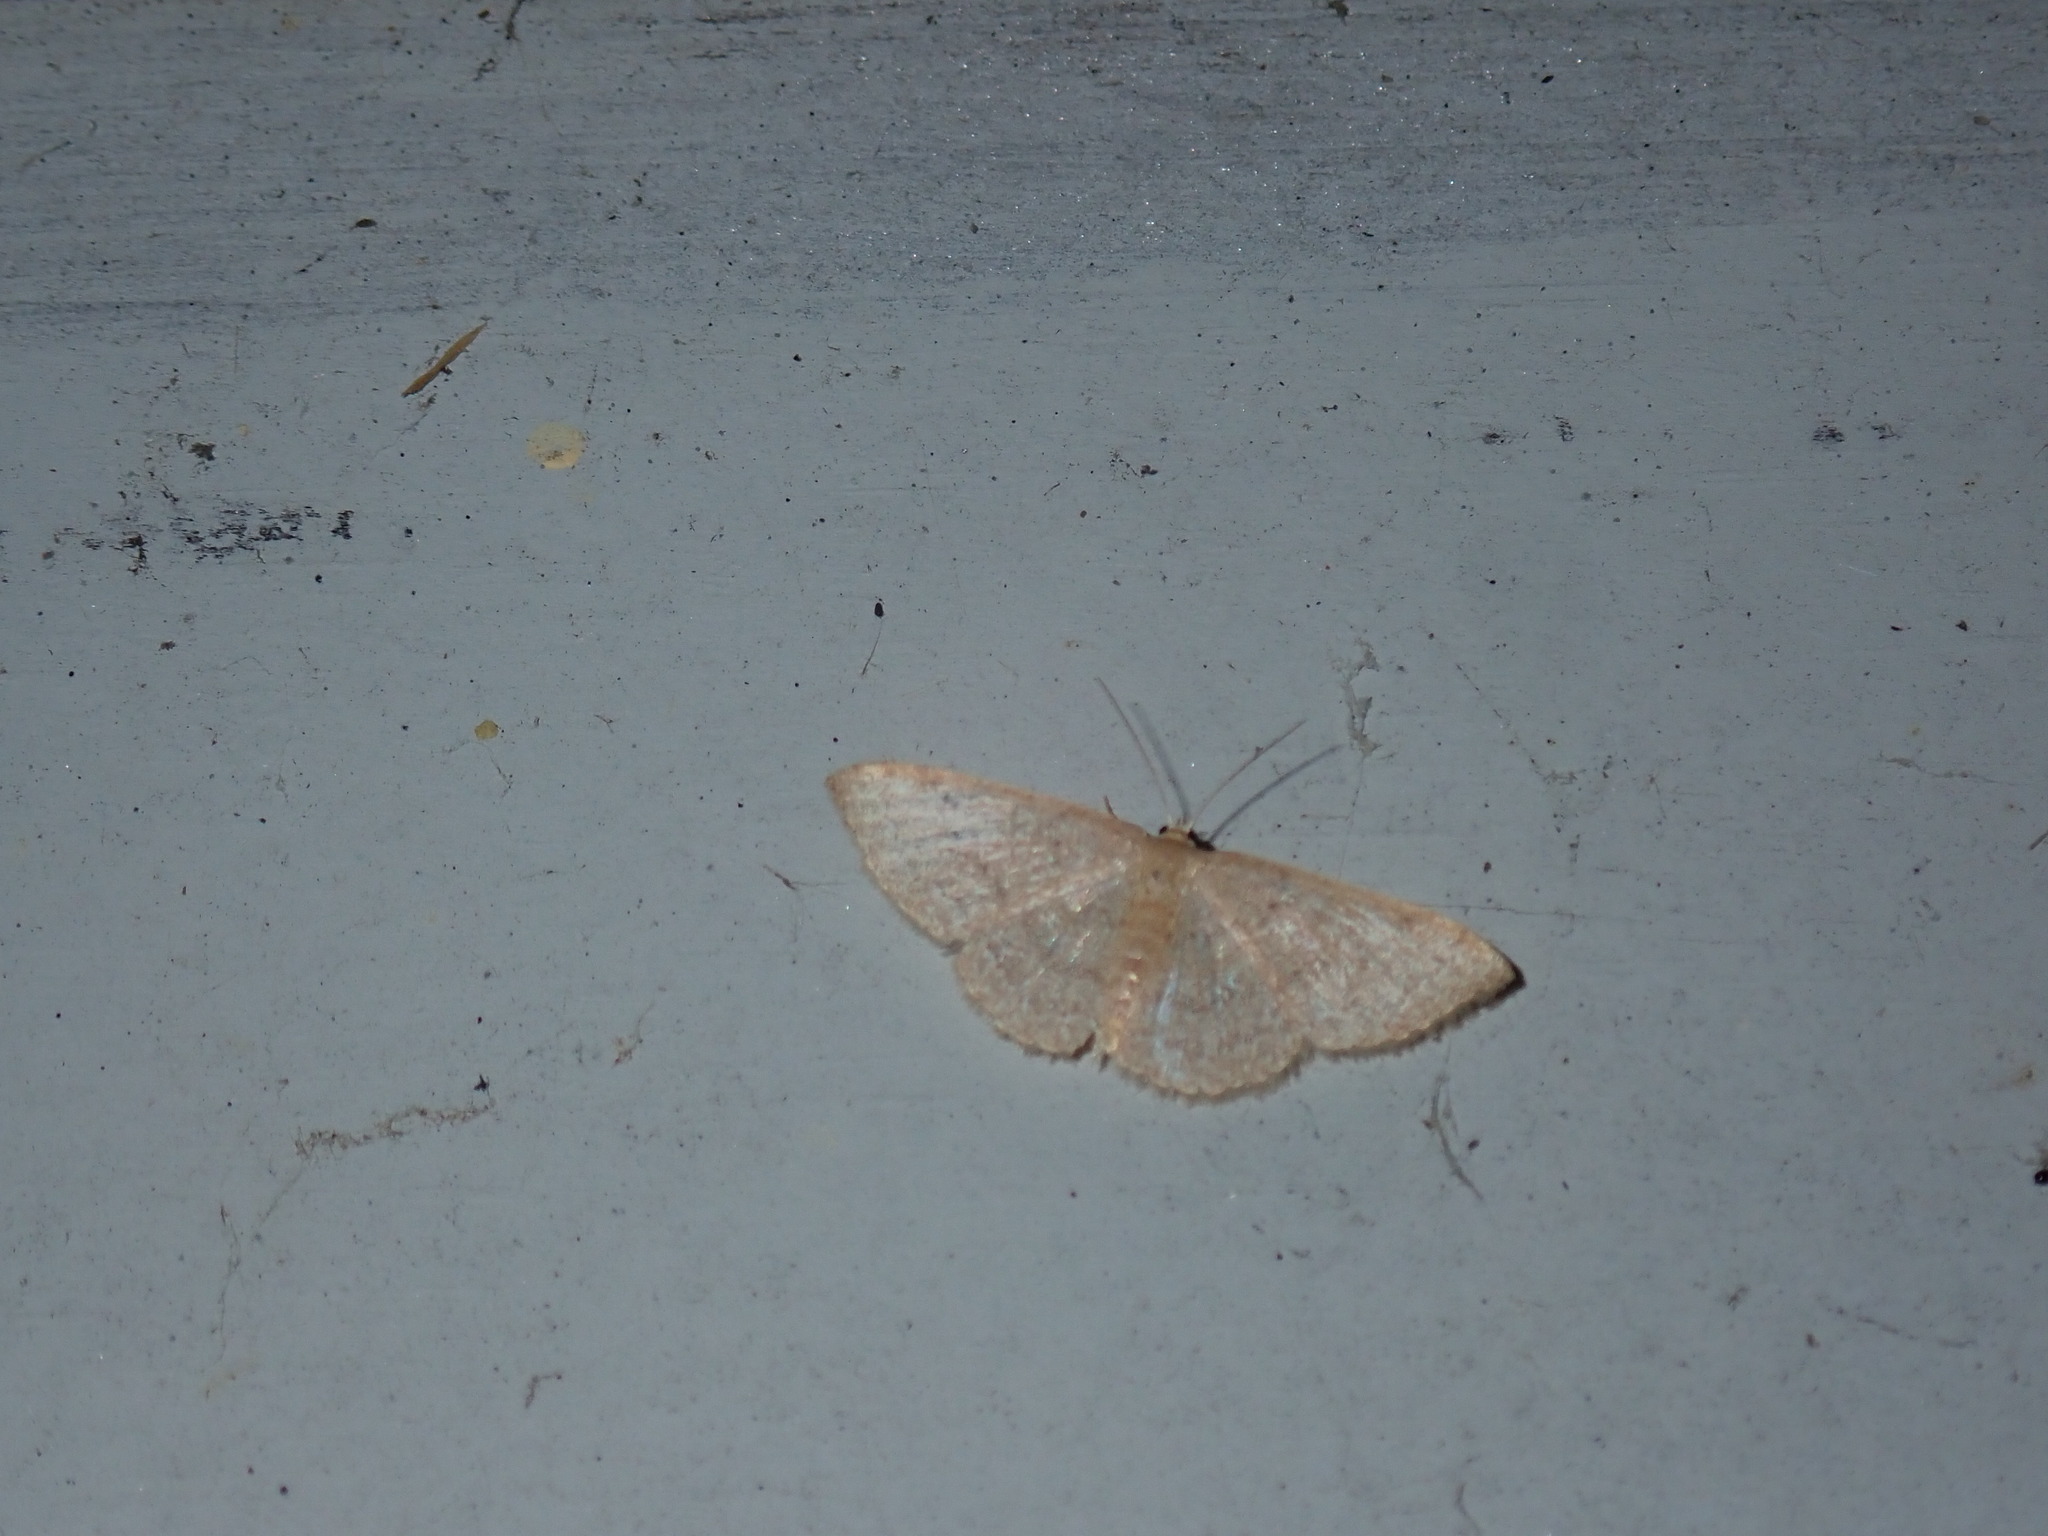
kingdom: Animalia
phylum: Arthropoda
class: Insecta
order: Lepidoptera
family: Geometridae
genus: Pleuroprucha
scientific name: Pleuroprucha insulsaria
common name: Common tan wave
